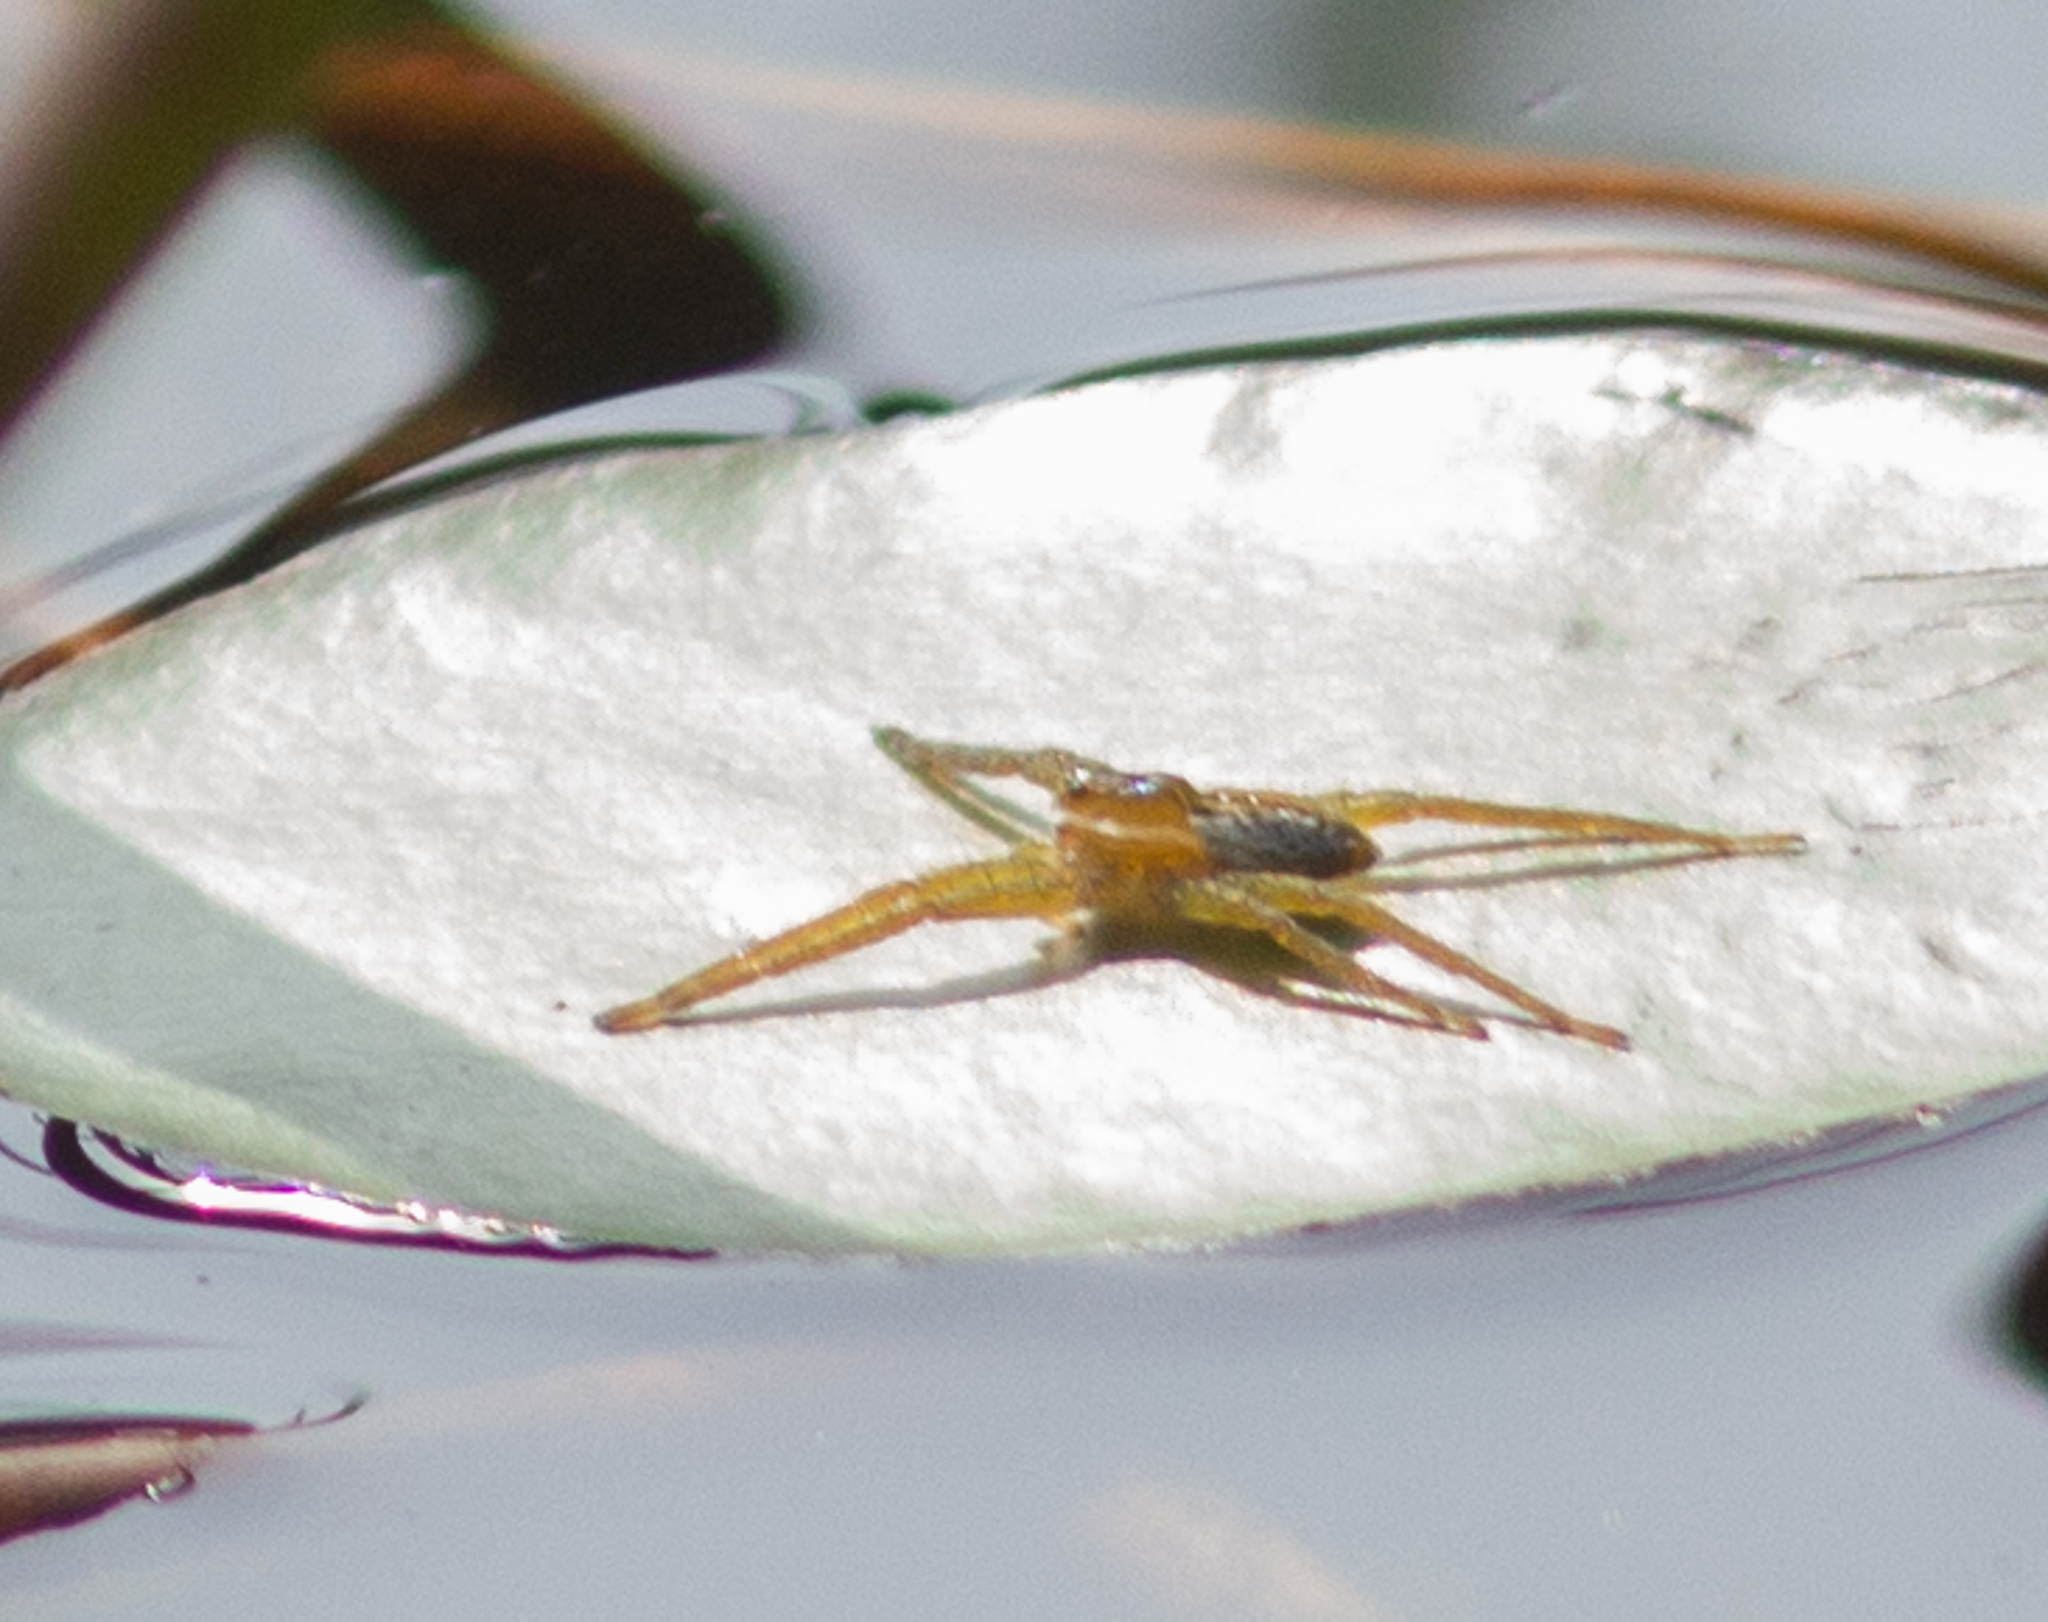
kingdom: Animalia
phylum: Arthropoda
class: Arachnida
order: Araneae
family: Pisauridae
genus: Dolomedes
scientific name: Dolomedes triton
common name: Six-spotted fishing spider
